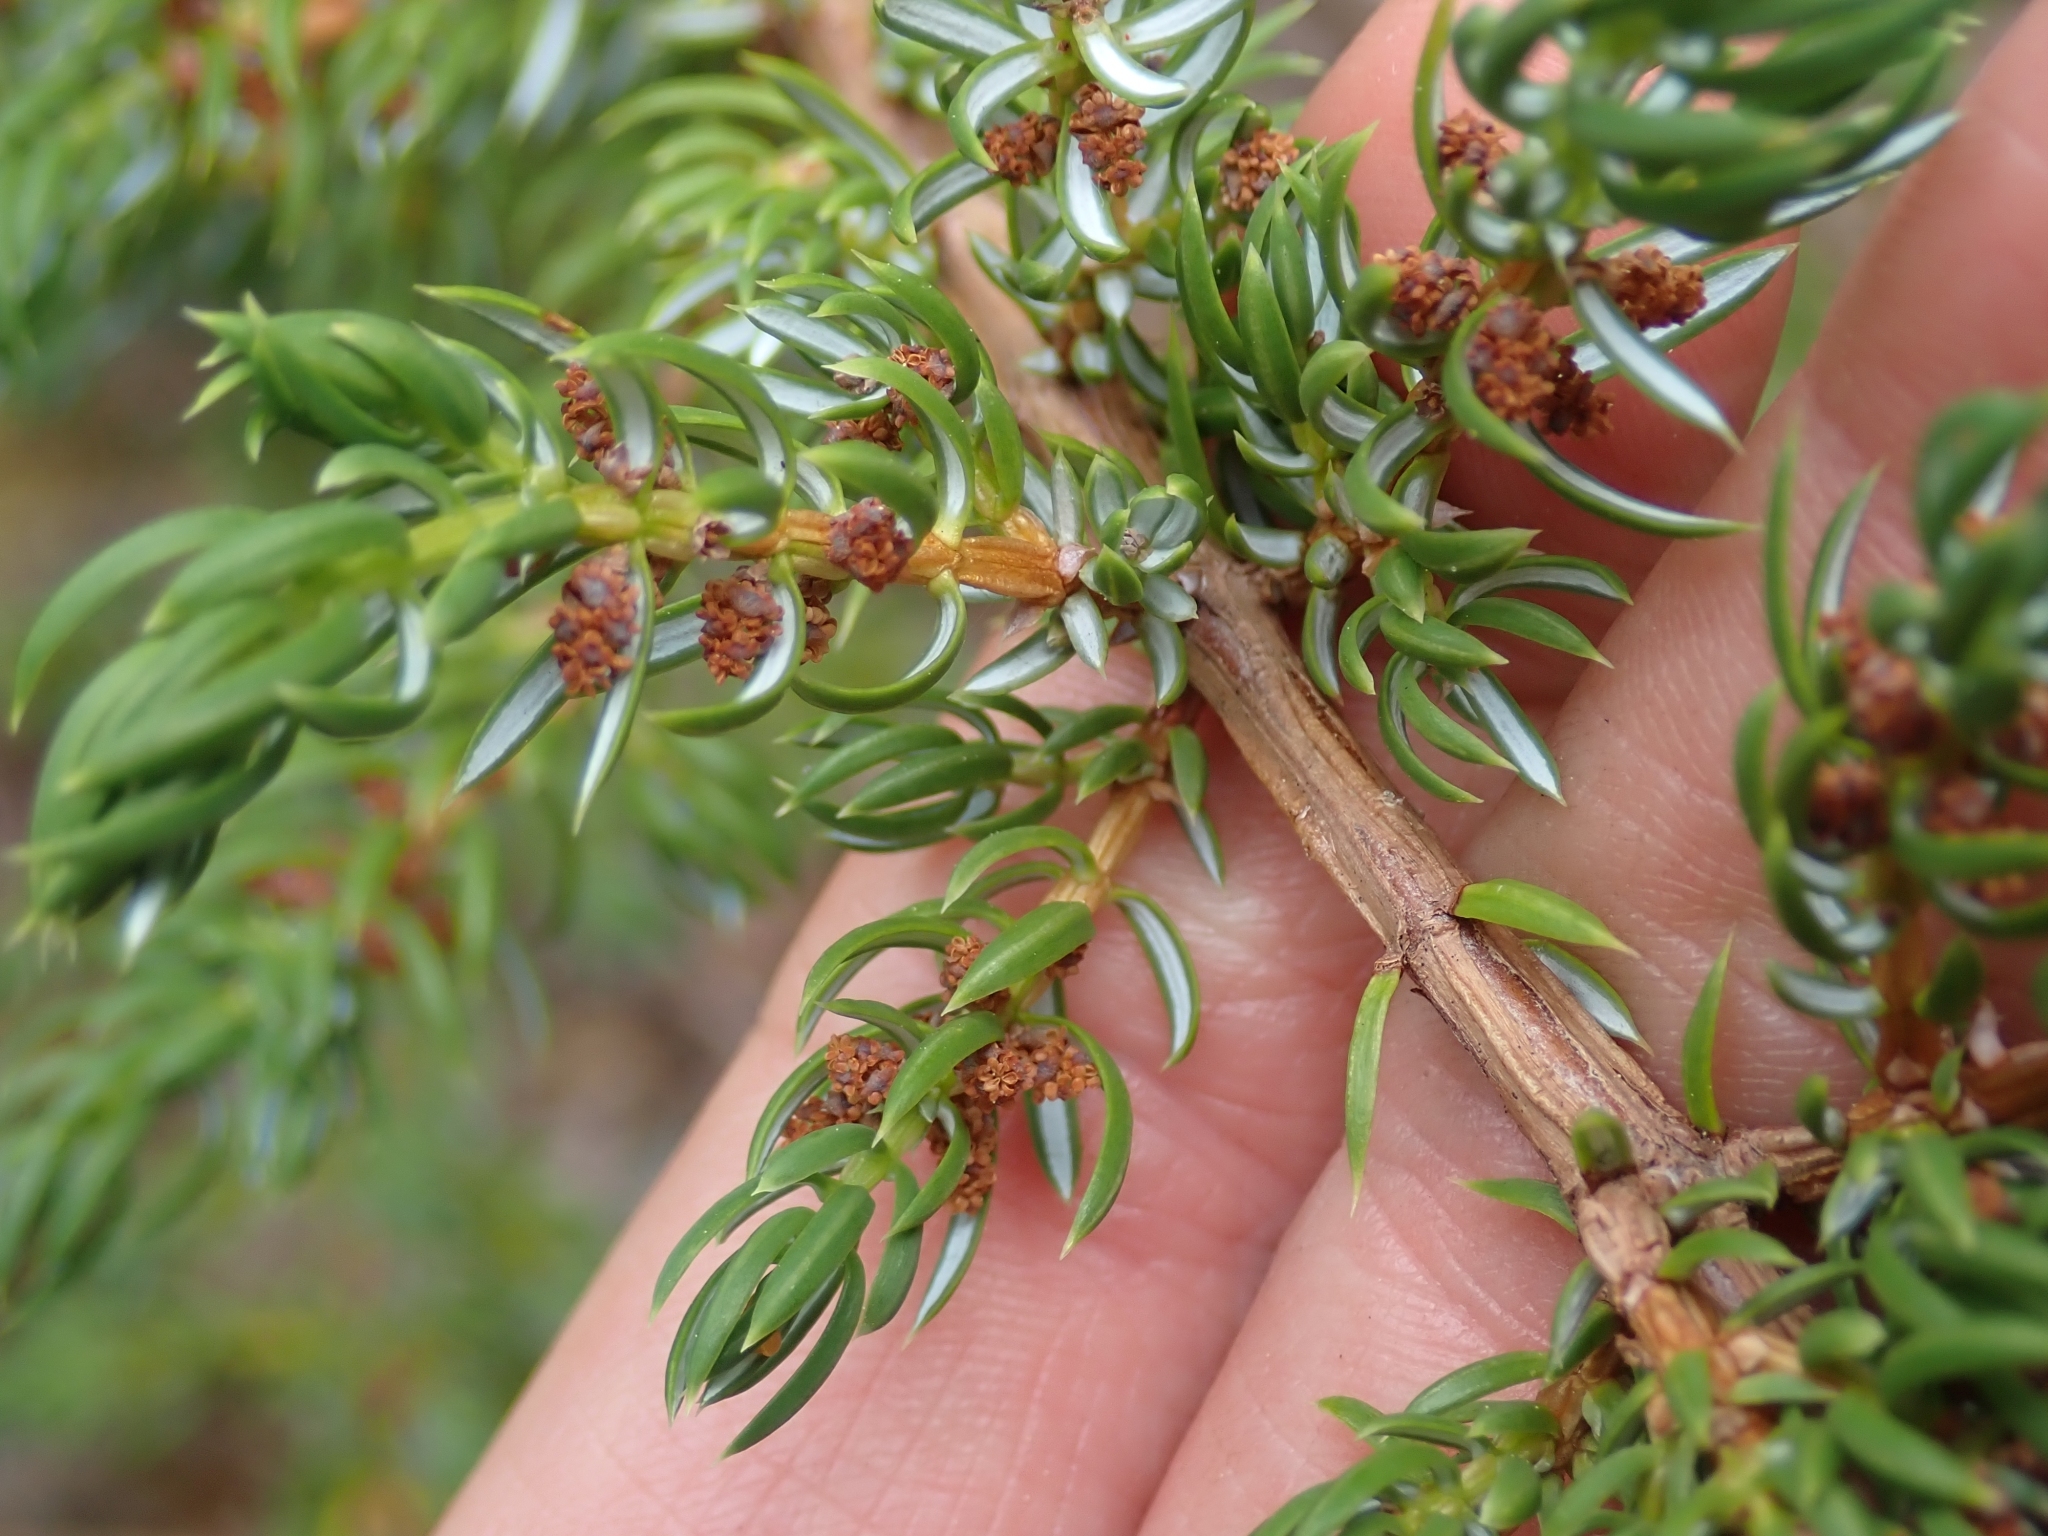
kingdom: Plantae
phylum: Tracheophyta
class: Pinopsida
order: Pinales
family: Cupressaceae
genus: Juniperus
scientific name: Juniperus communis
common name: Common juniper
